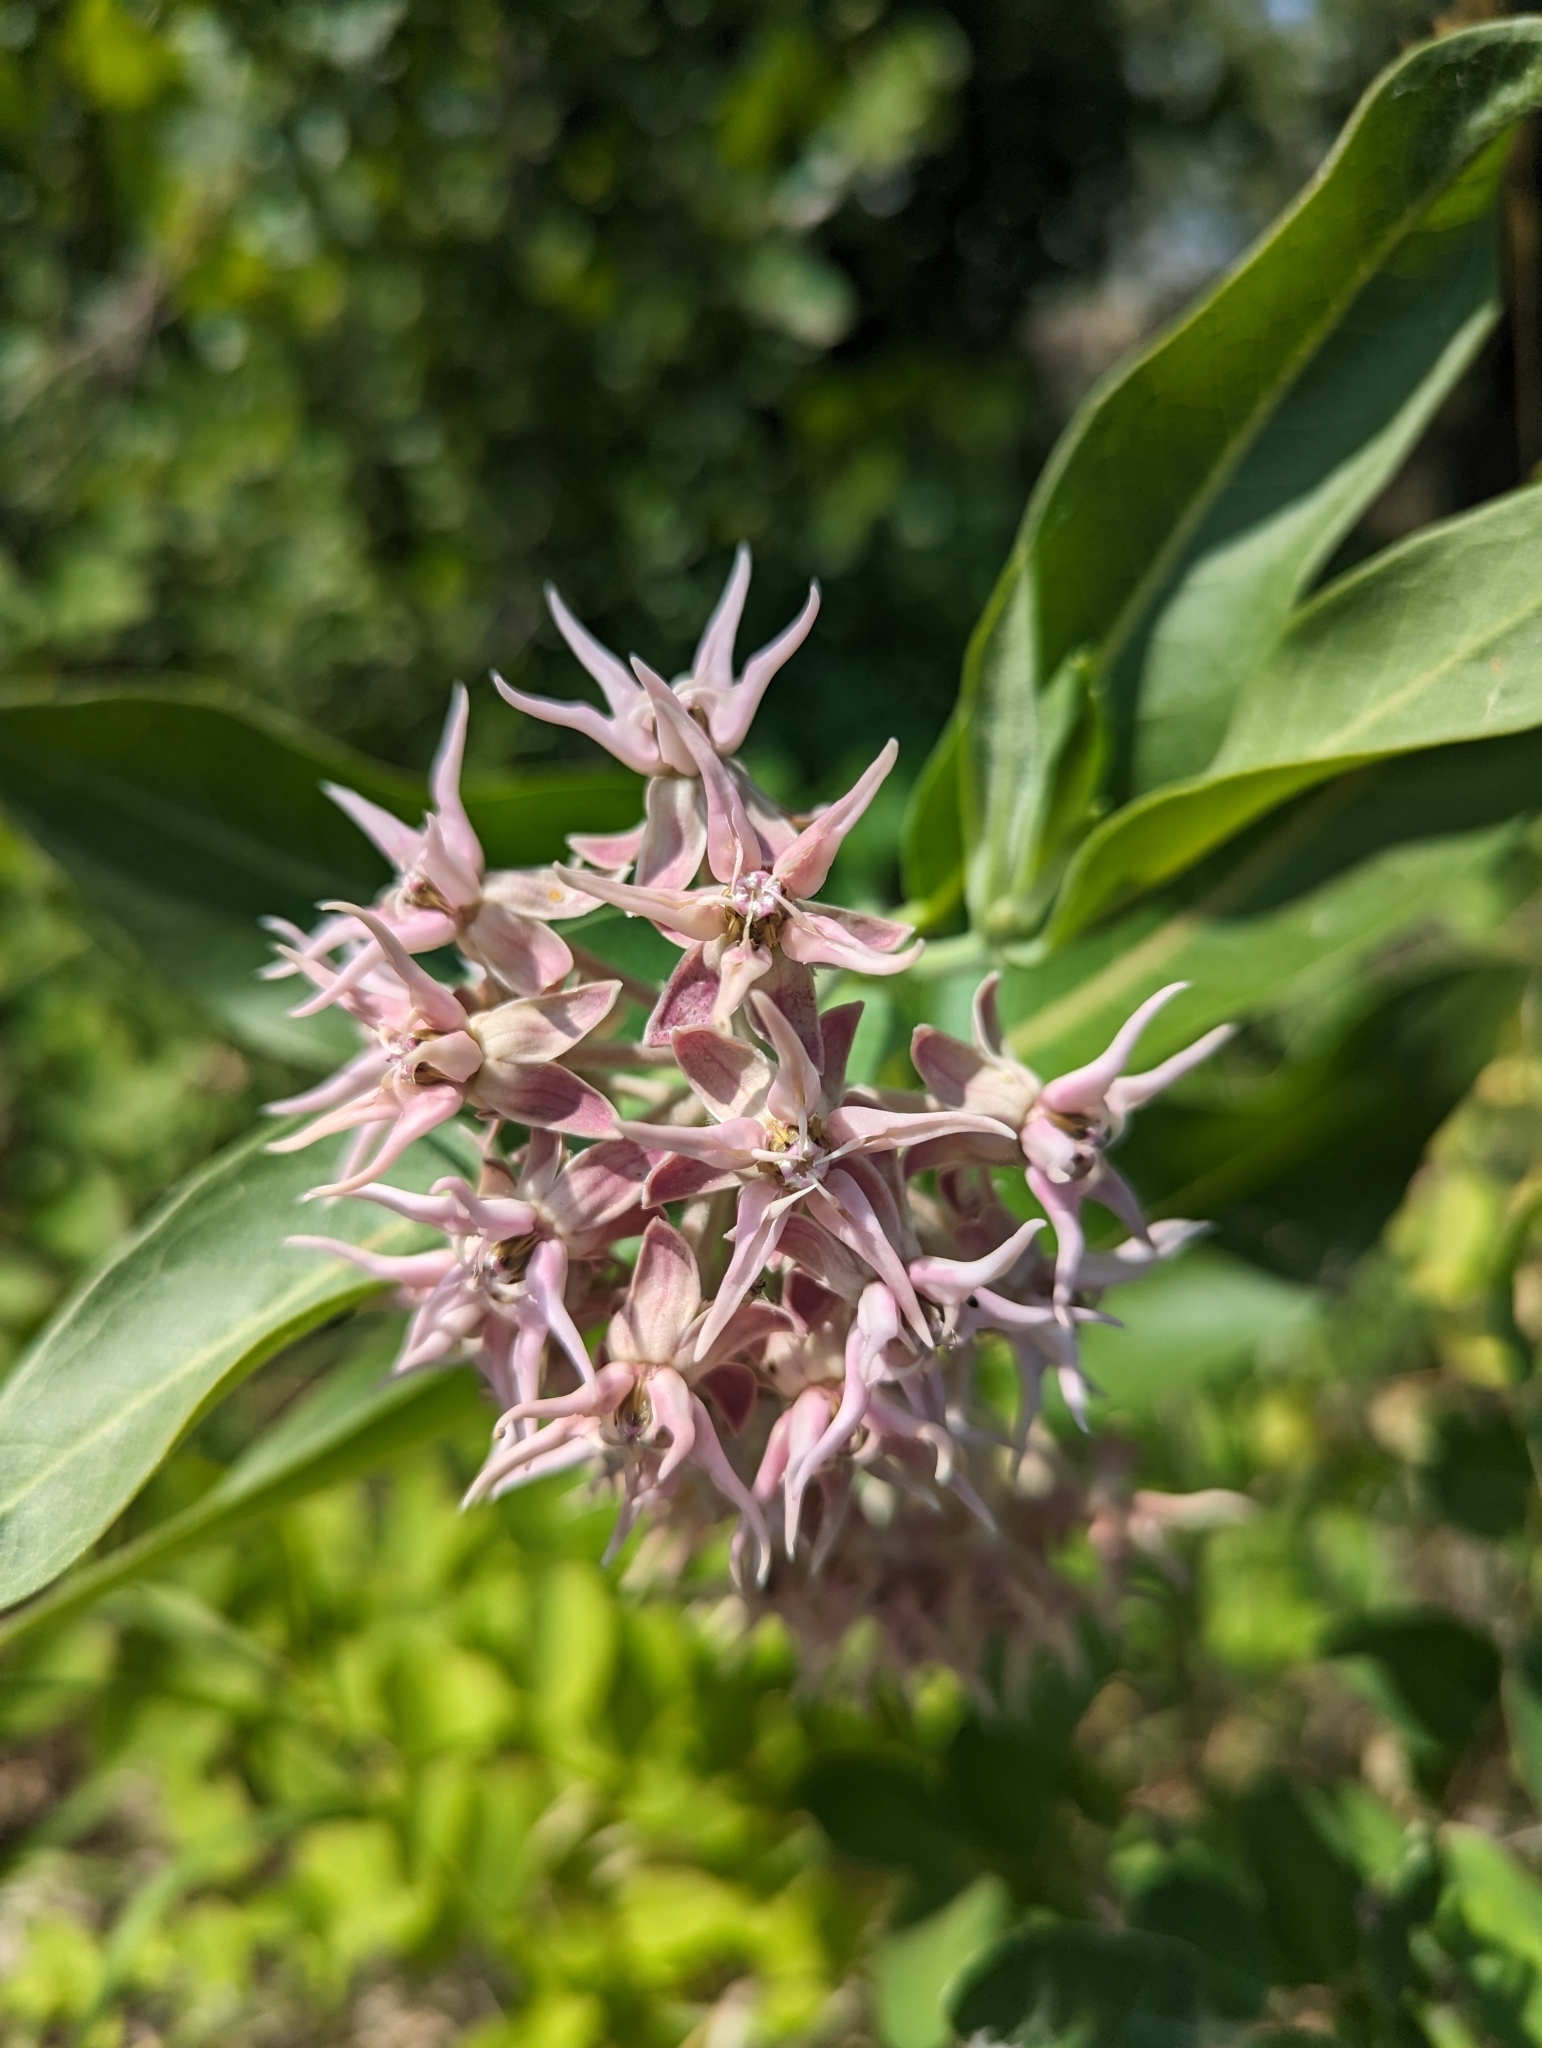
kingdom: Plantae
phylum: Tracheophyta
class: Magnoliopsida
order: Gentianales
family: Apocynaceae
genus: Asclepias
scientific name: Asclepias speciosa
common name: Showy milkweed
